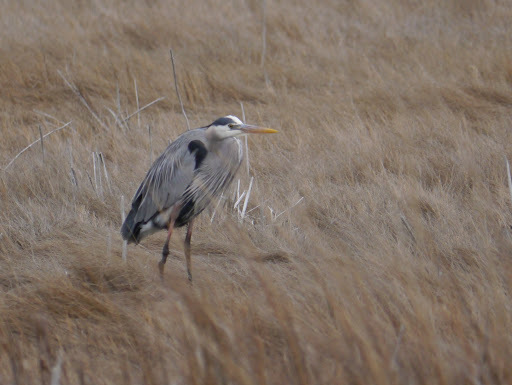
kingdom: Animalia
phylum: Chordata
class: Aves
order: Pelecaniformes
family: Ardeidae
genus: Ardea
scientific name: Ardea herodias
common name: Great blue heron
